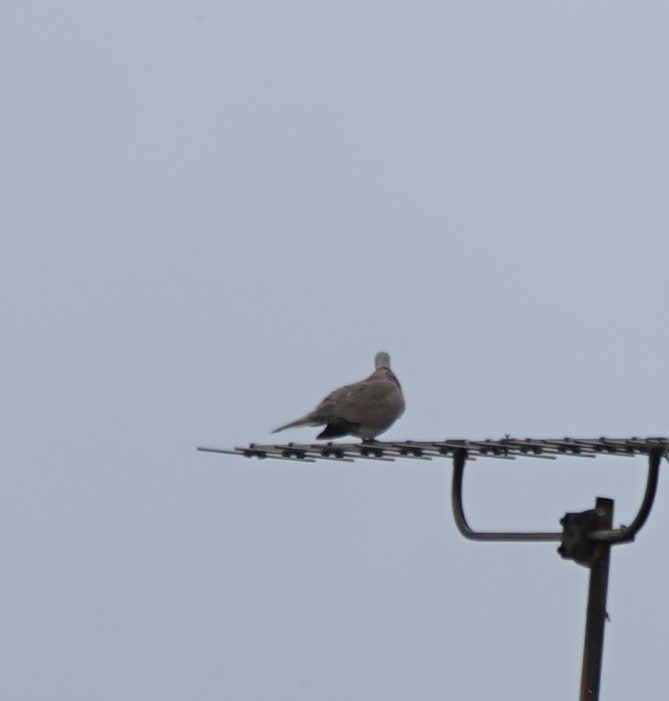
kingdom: Animalia
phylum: Chordata
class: Aves
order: Columbiformes
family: Columbidae
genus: Streptopelia
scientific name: Streptopelia decaocto
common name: Eurasian collared dove
